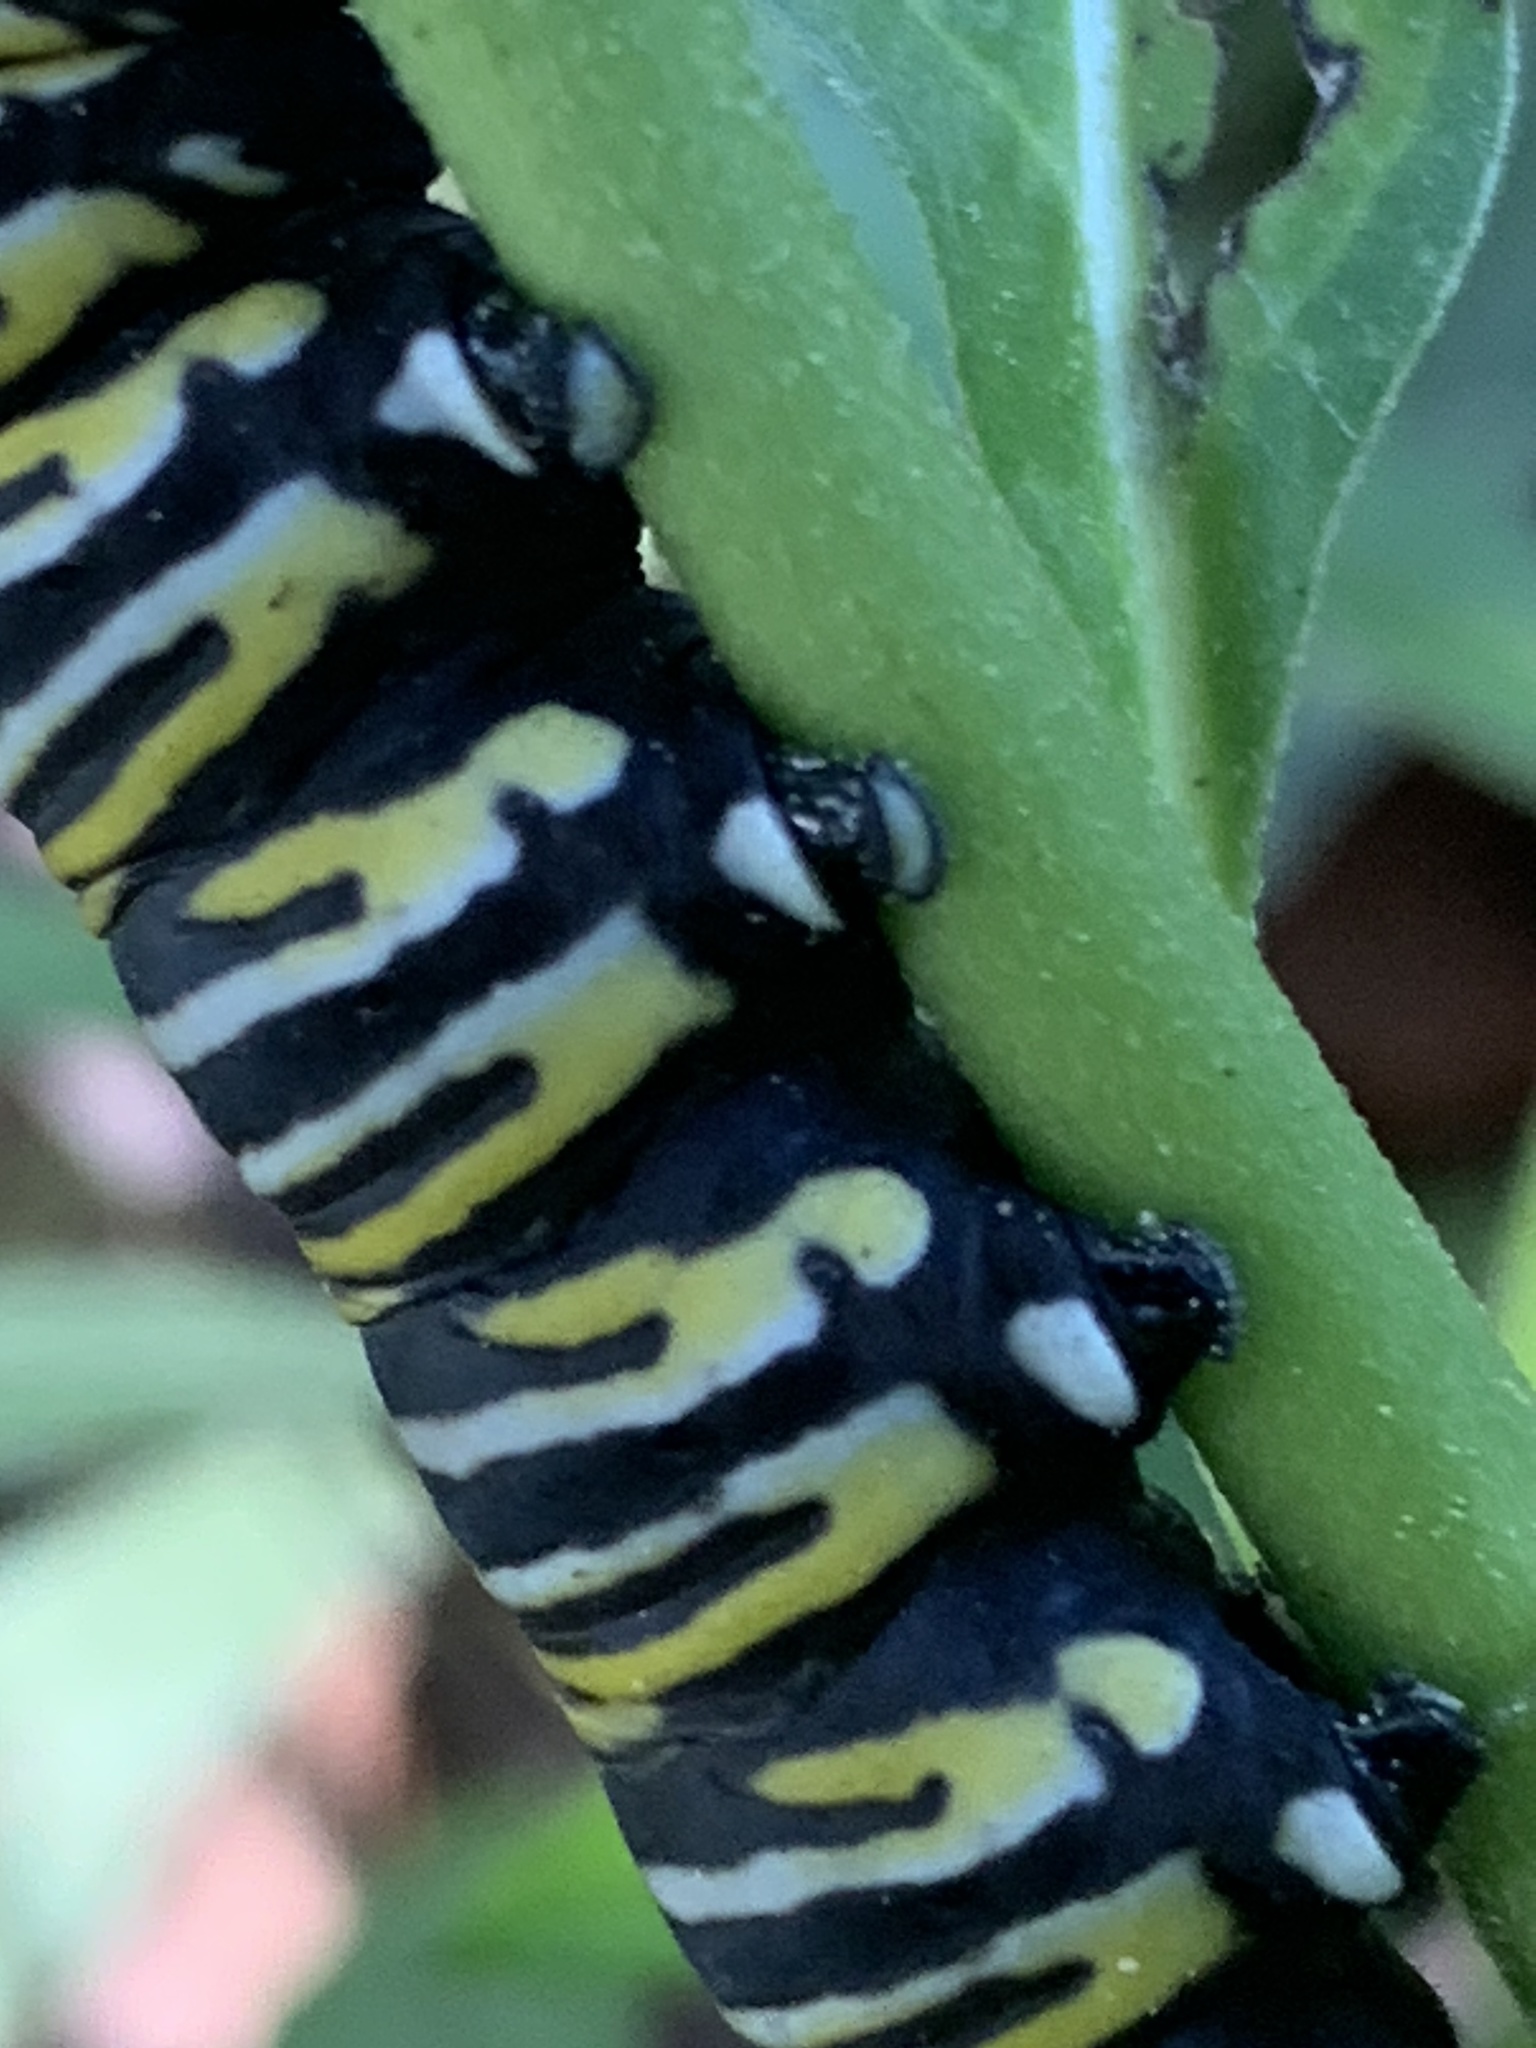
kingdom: Animalia
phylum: Arthropoda
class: Insecta
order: Lepidoptera
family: Nymphalidae
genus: Danaus
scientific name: Danaus plexippus
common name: Monarch
